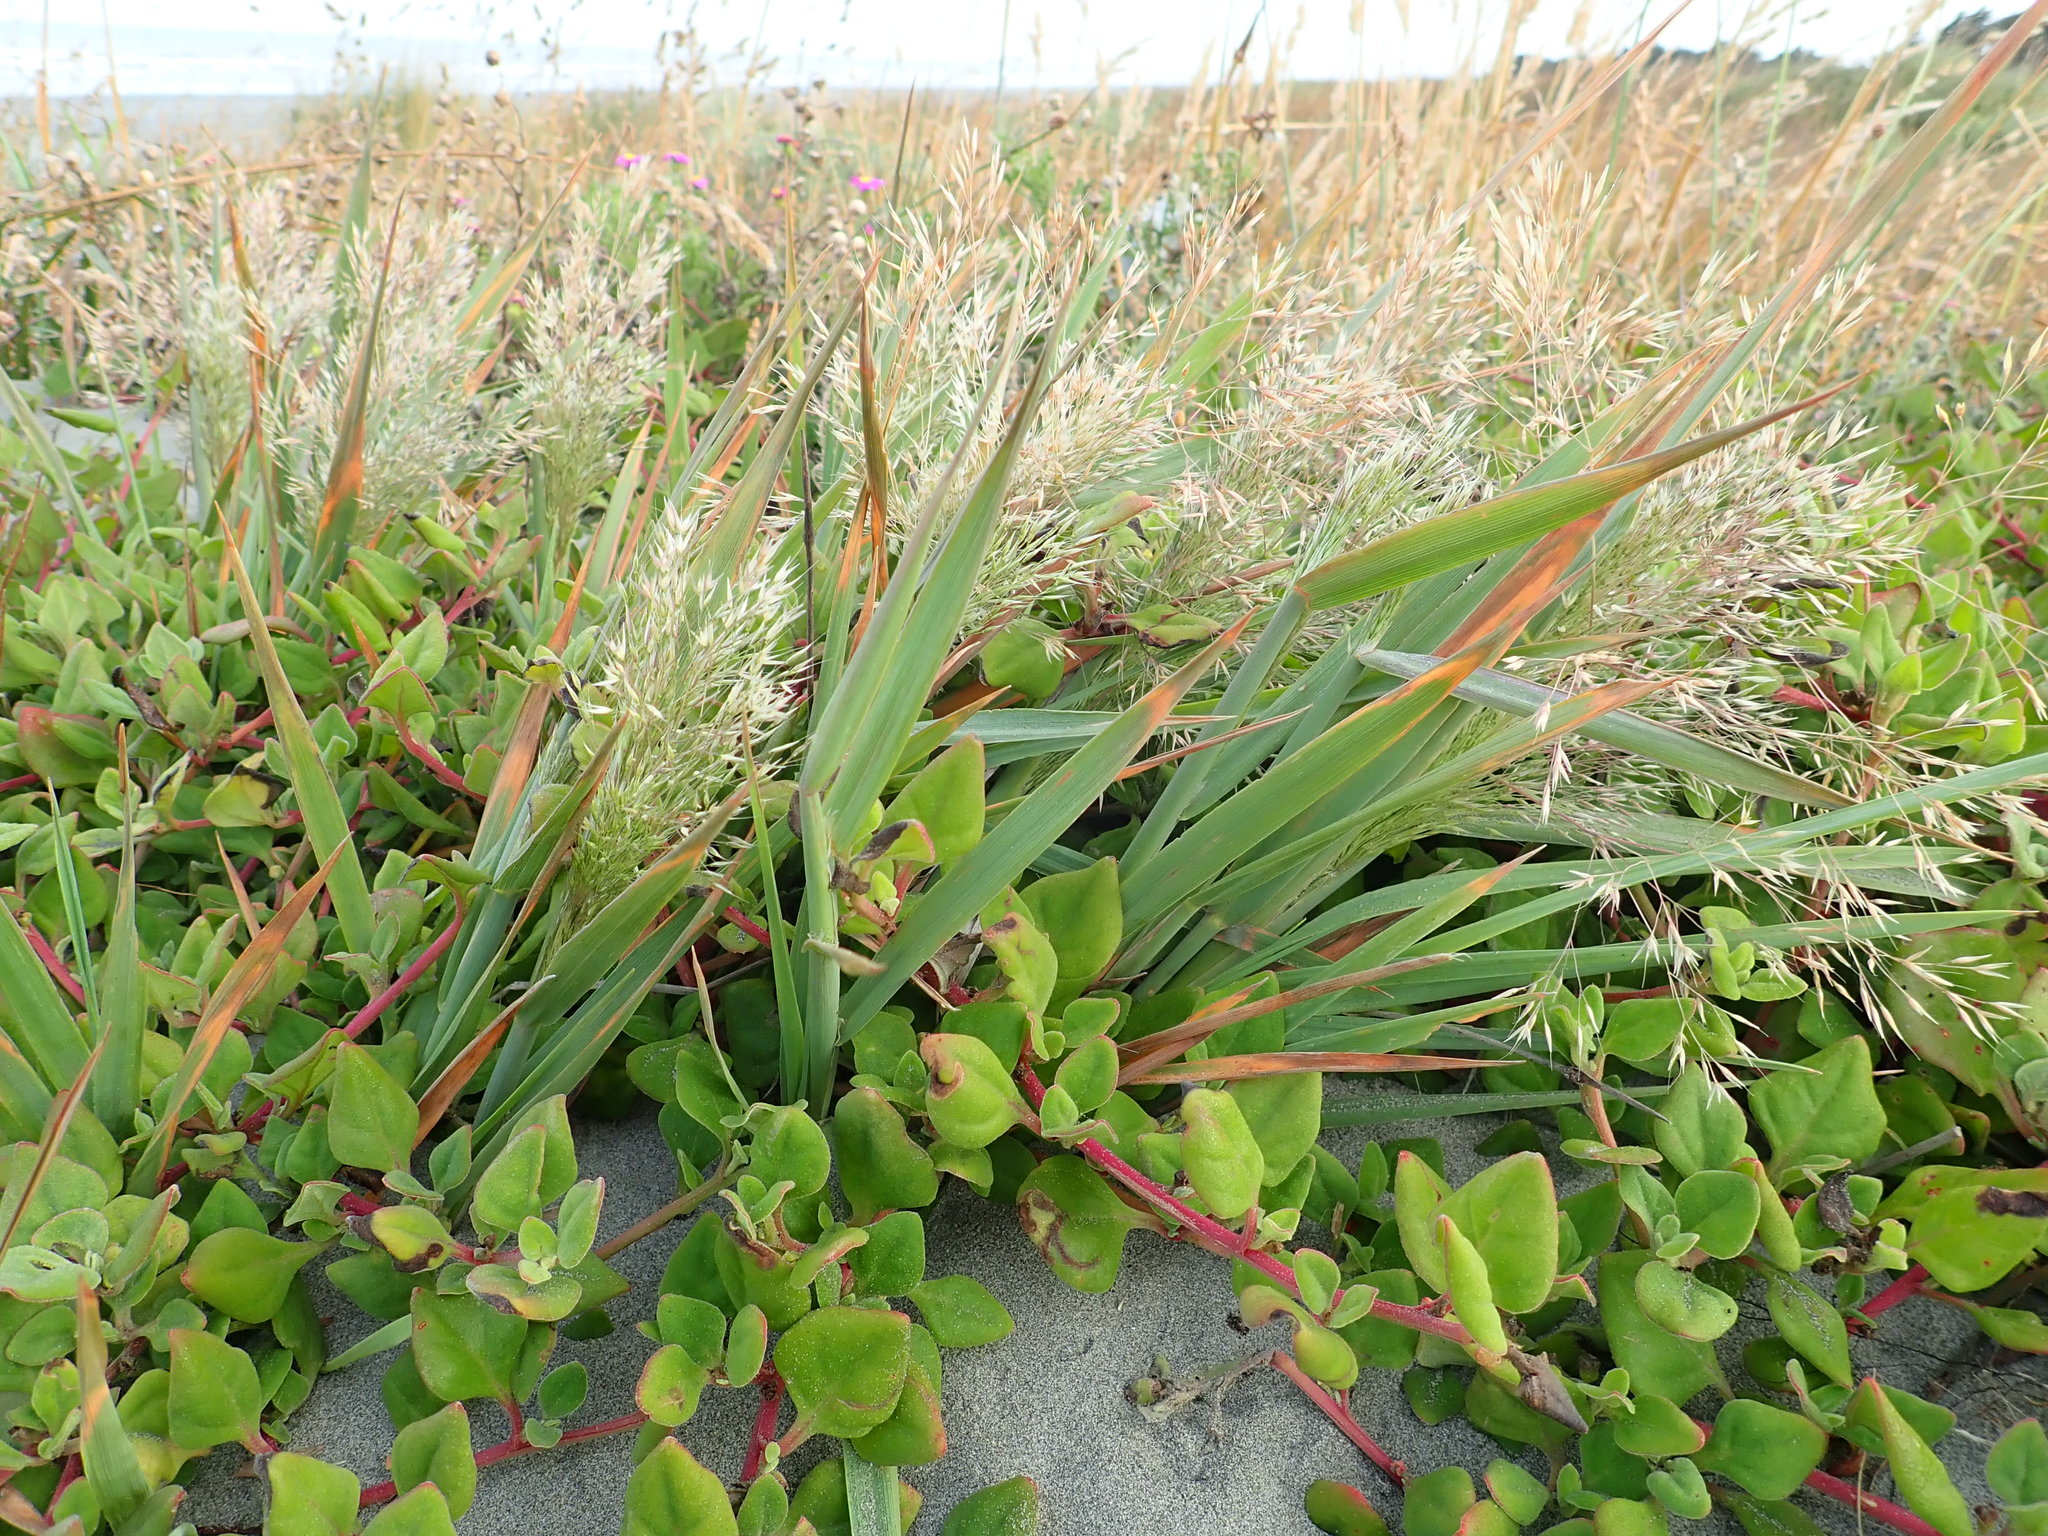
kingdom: Plantae
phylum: Tracheophyta
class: Liliopsida
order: Poales
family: Poaceae
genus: Lachnagrostis
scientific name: Lachnagrostis billardierei
